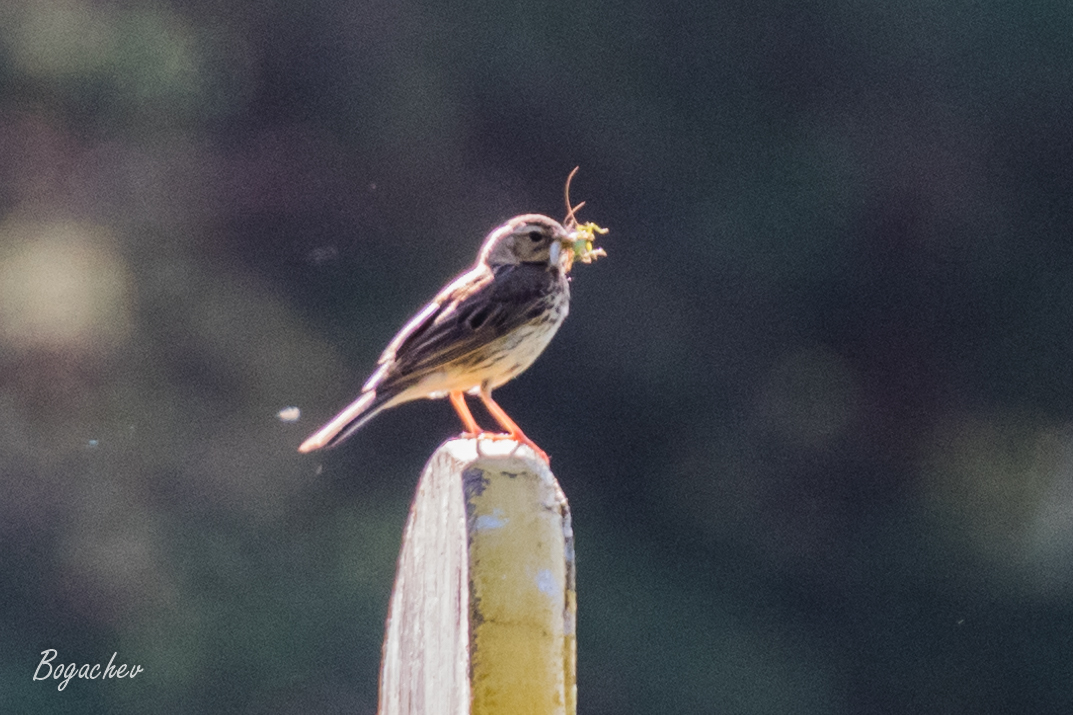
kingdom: Animalia
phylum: Chordata
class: Aves
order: Passeriformes
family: Motacillidae
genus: Anthus
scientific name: Anthus trivialis
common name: Tree pipit
